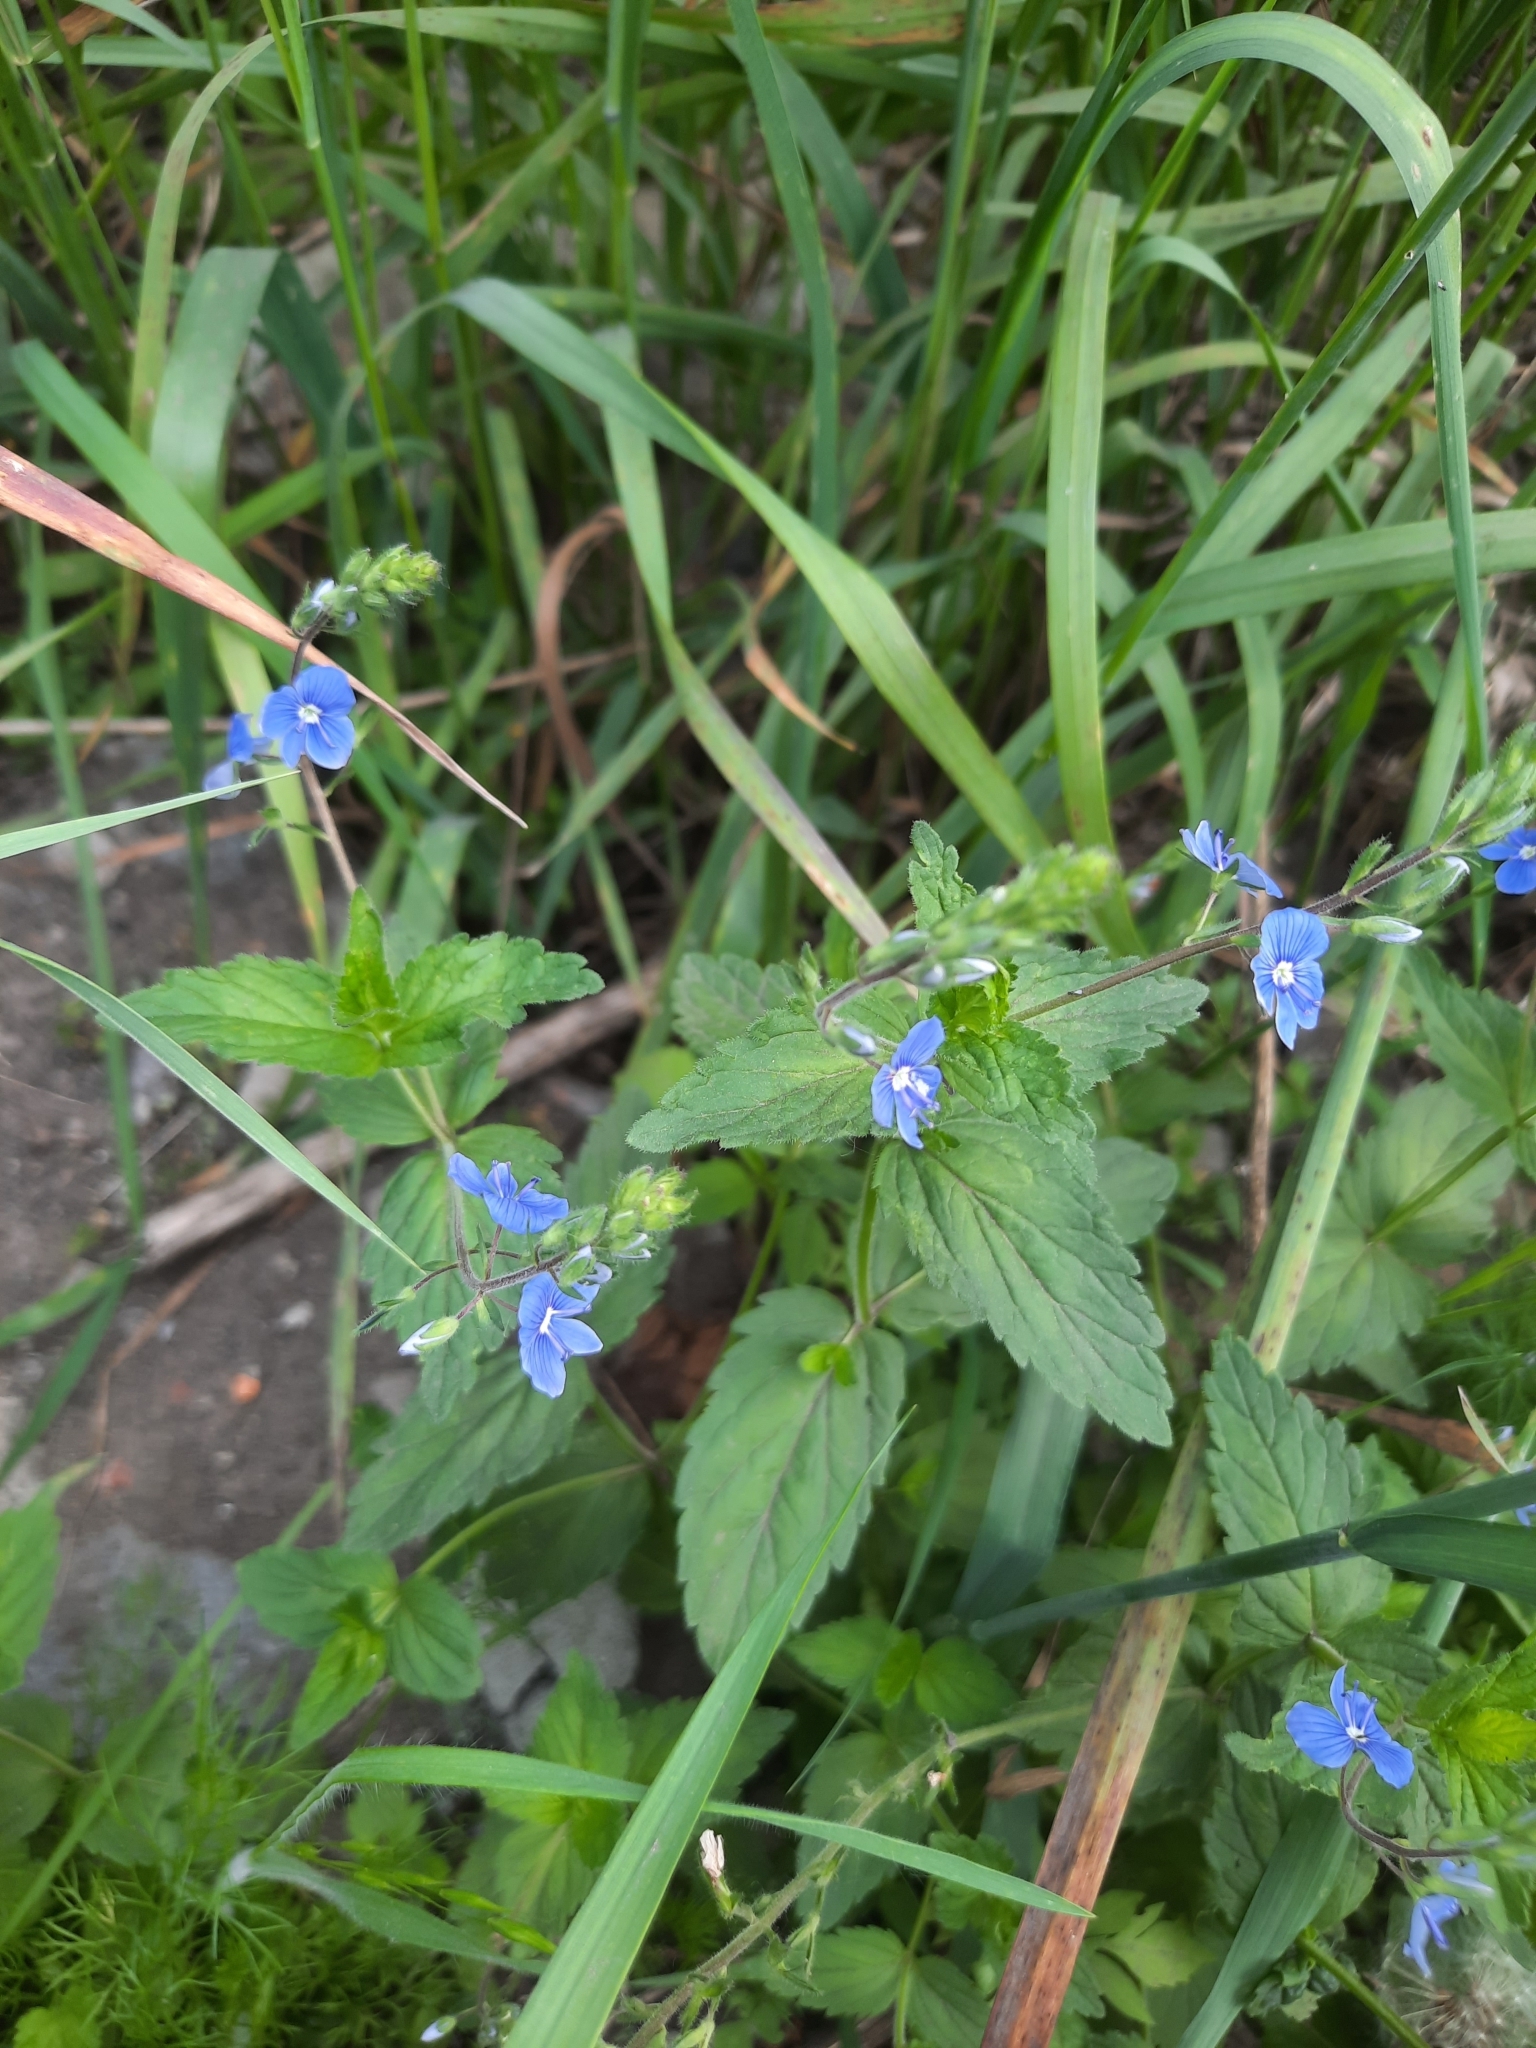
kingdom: Plantae
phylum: Tracheophyta
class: Magnoliopsida
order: Lamiales
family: Plantaginaceae
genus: Veronica
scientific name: Veronica chamaedrys
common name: Germander speedwell
